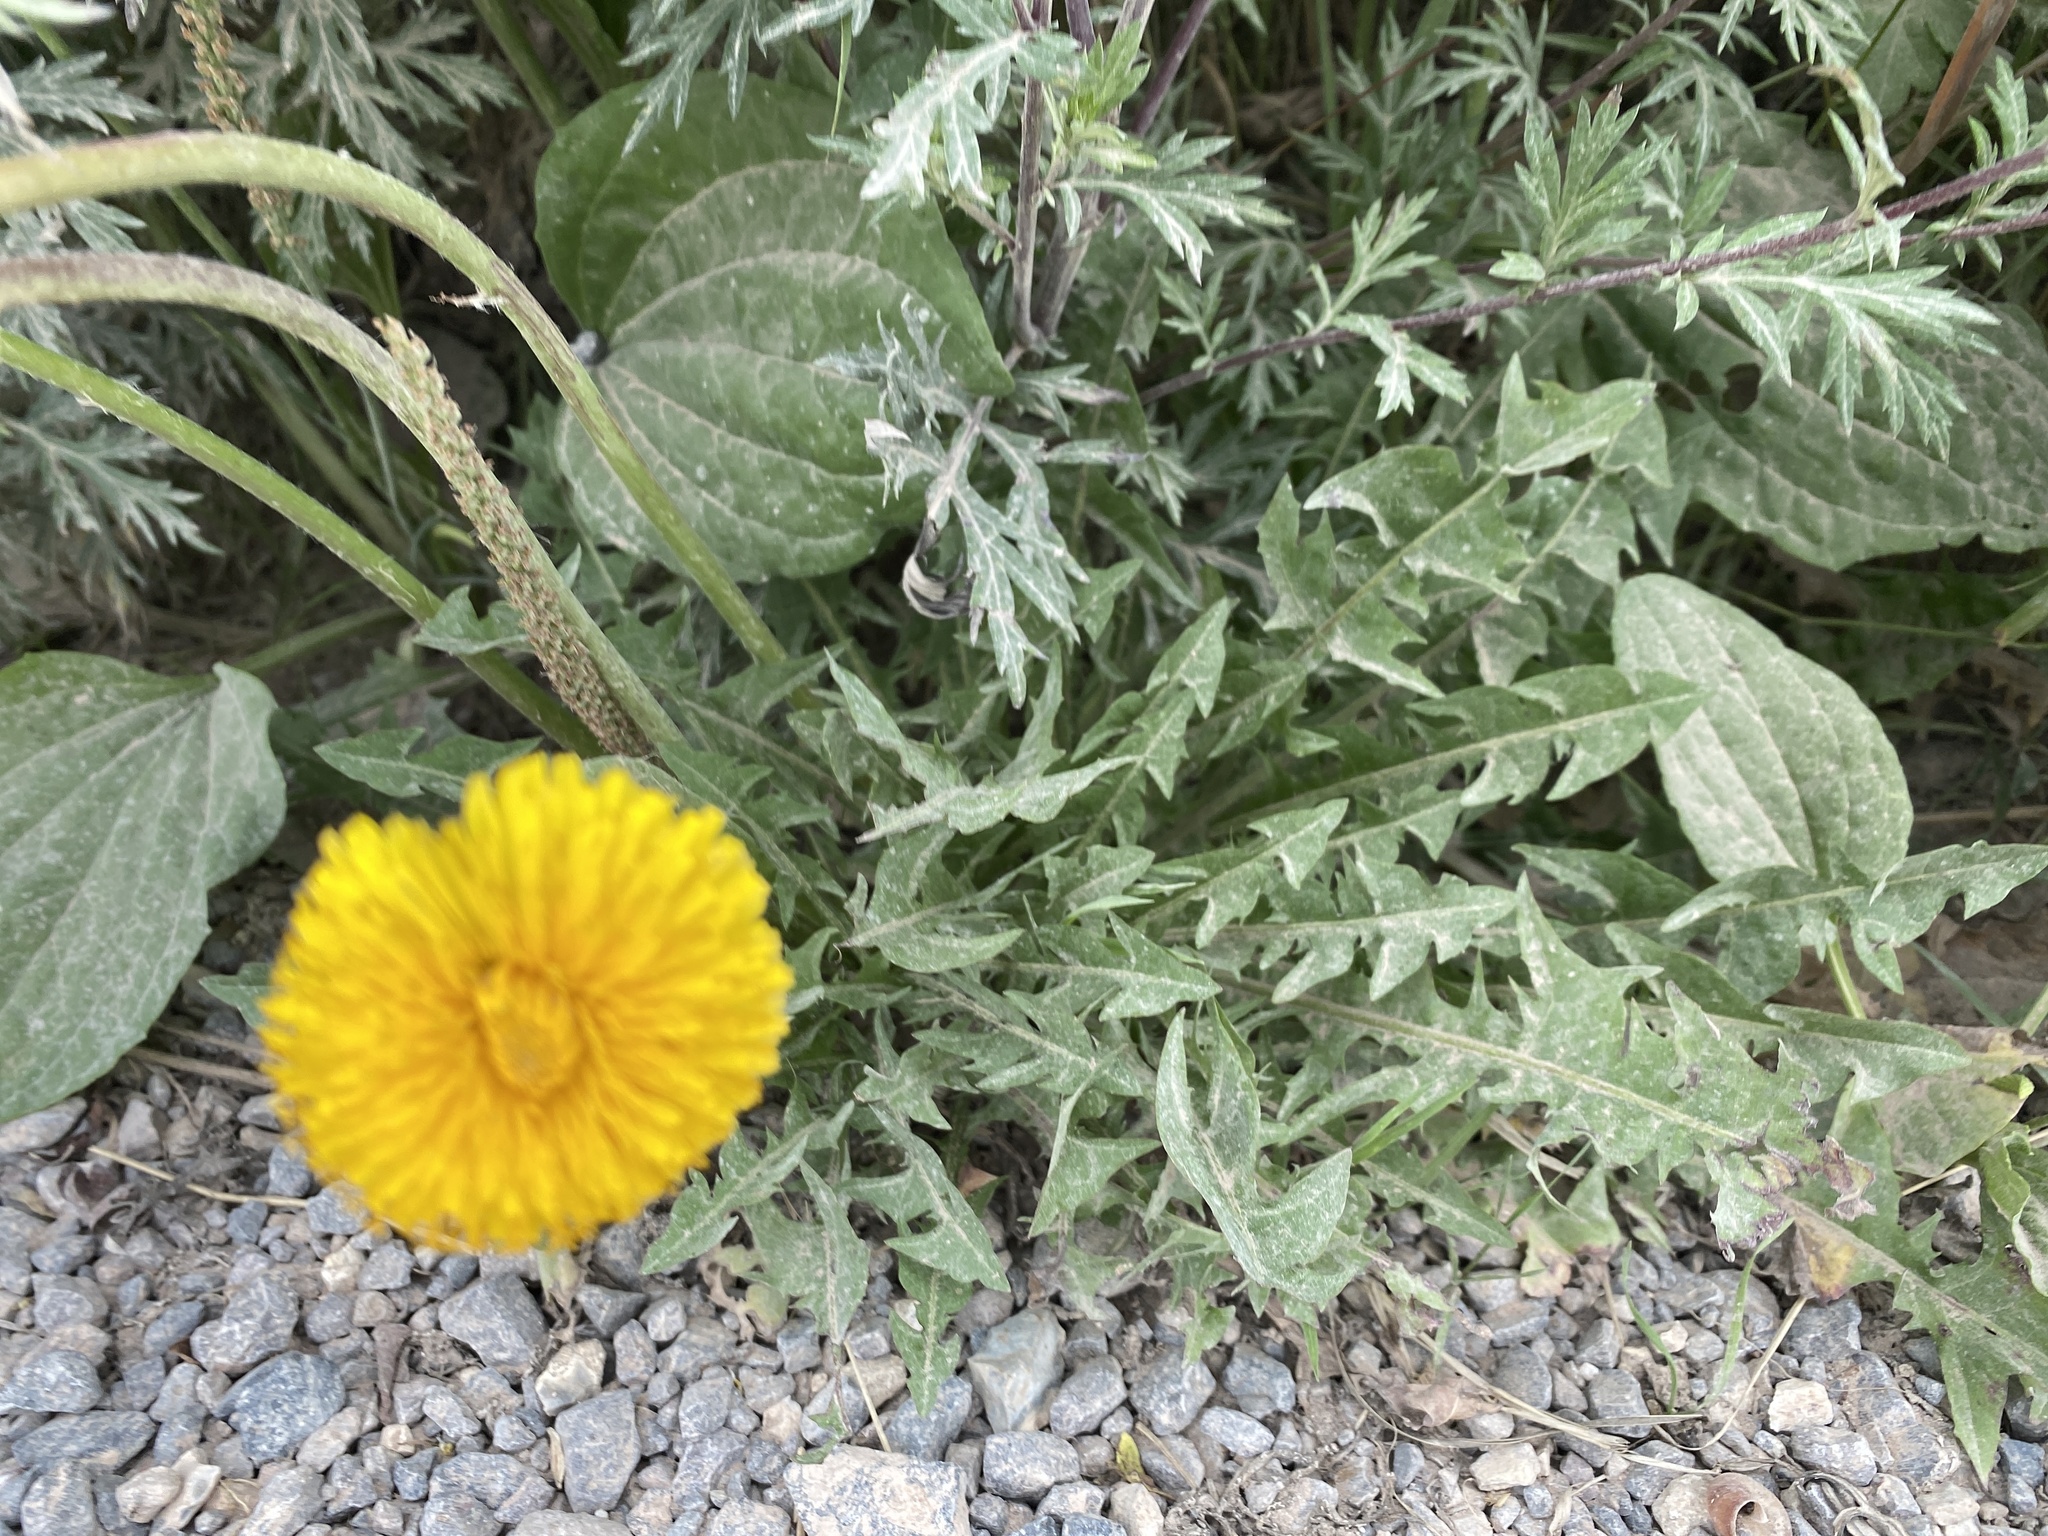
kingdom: Plantae
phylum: Tracheophyta
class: Magnoliopsida
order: Asterales
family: Asteraceae
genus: Taraxacum
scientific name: Taraxacum officinale
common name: Common dandelion
